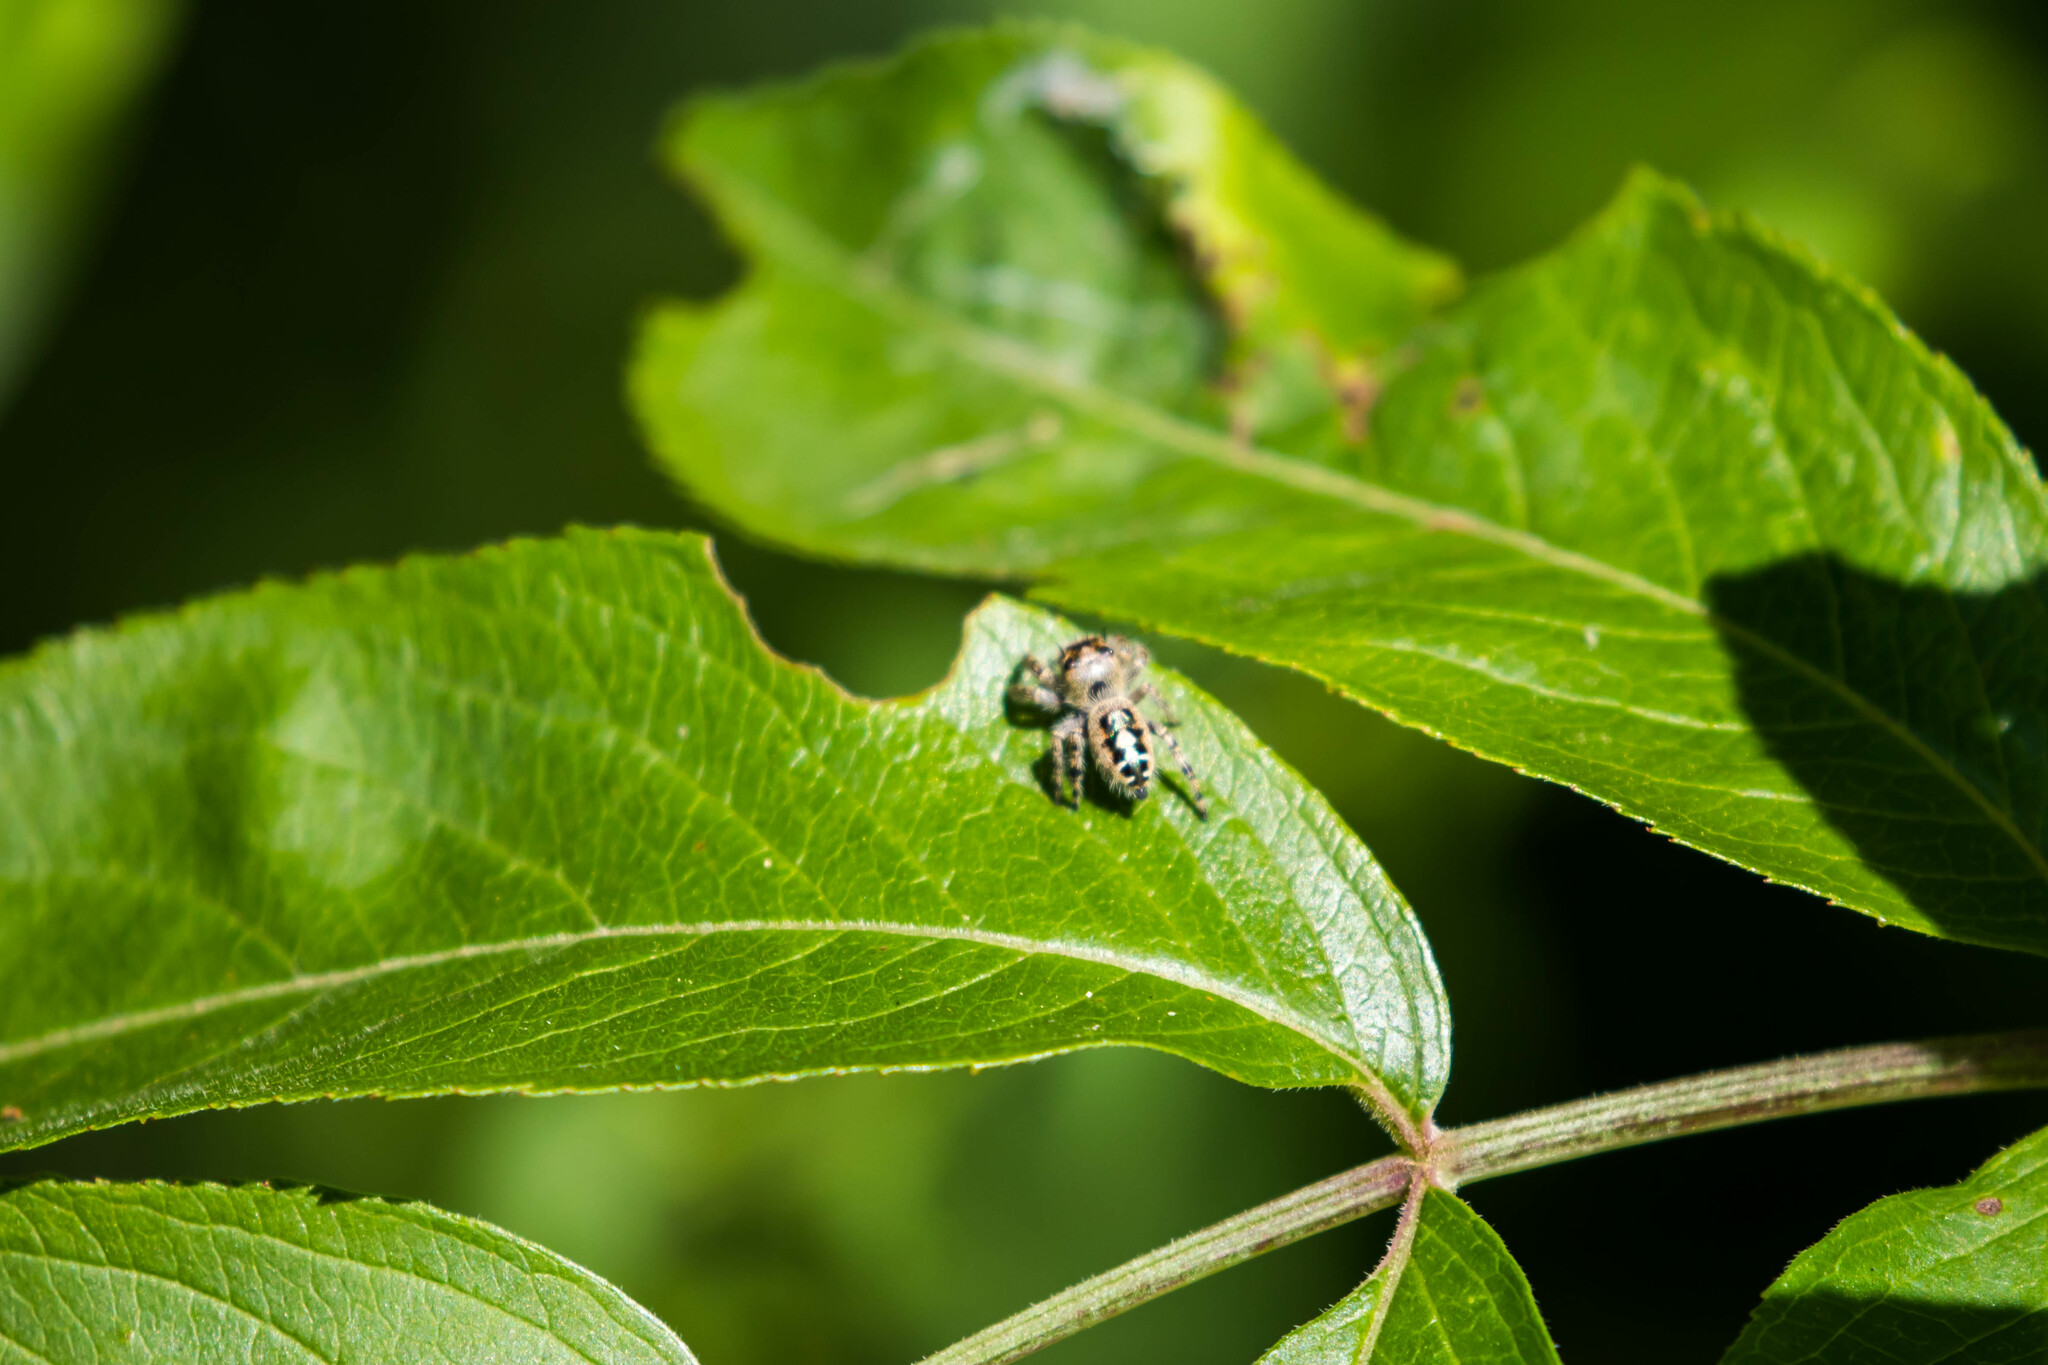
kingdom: Animalia
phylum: Arthropoda
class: Arachnida
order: Araneae
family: Salticidae
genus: Phidippus
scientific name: Phidippus putnami
